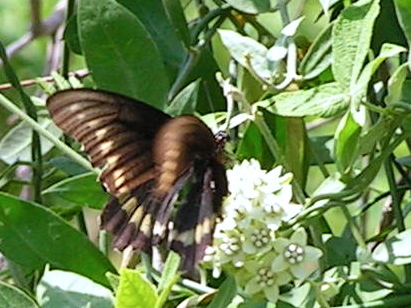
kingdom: Animalia
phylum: Arthropoda
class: Insecta
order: Lepidoptera
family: Papilionidae
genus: Battus
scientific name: Battus polydamas
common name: Polydamas swallowtail
